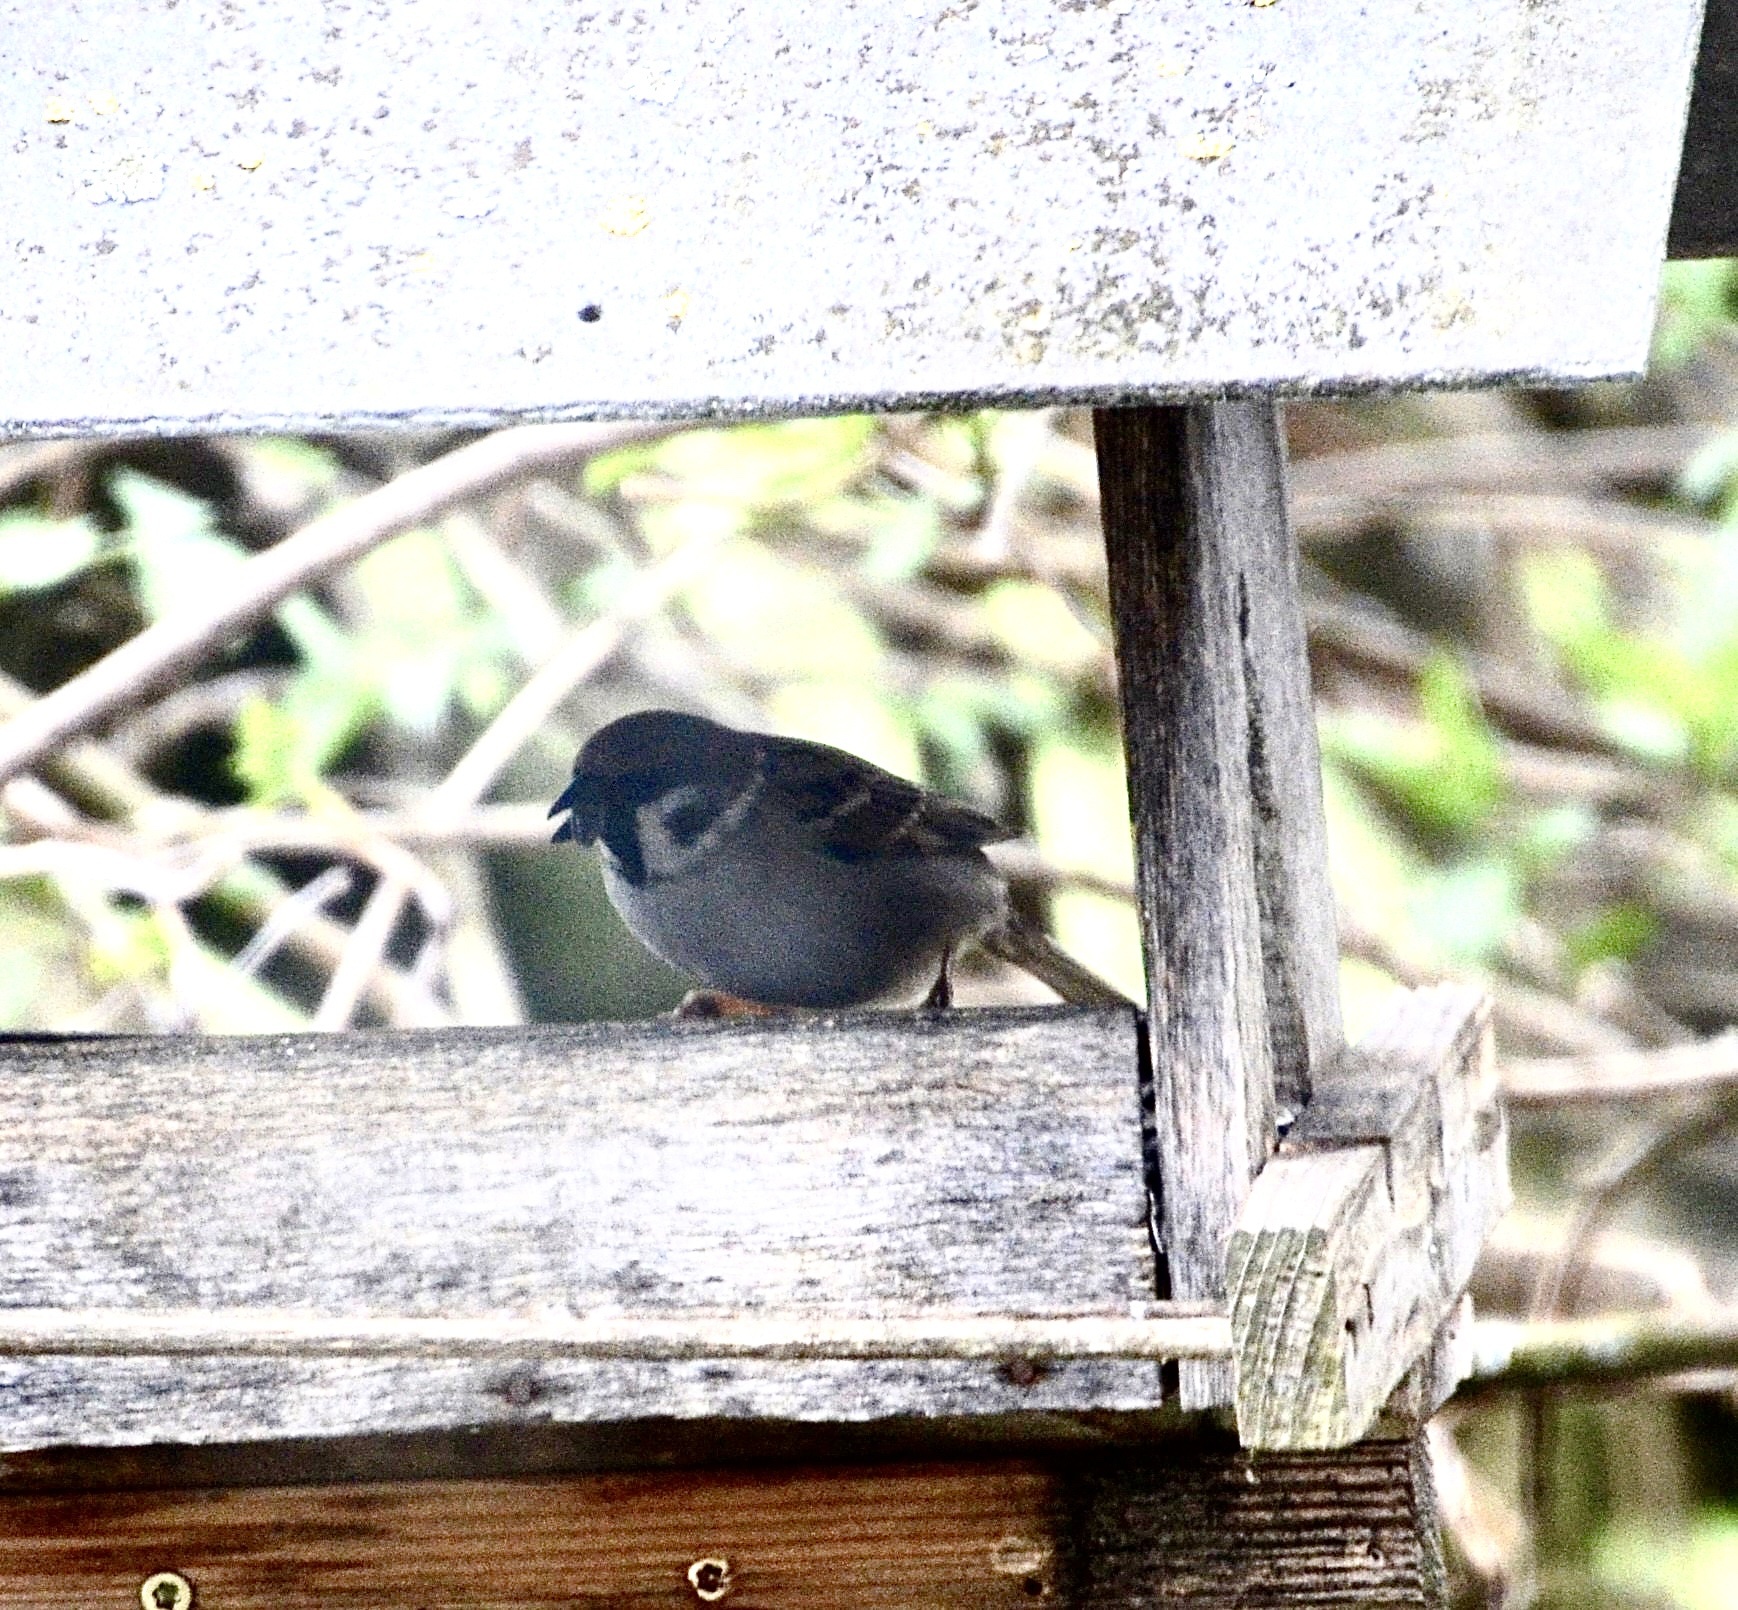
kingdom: Animalia
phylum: Chordata
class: Aves
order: Passeriformes
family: Passeridae
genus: Passer
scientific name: Passer montanus
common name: Eurasian tree sparrow
